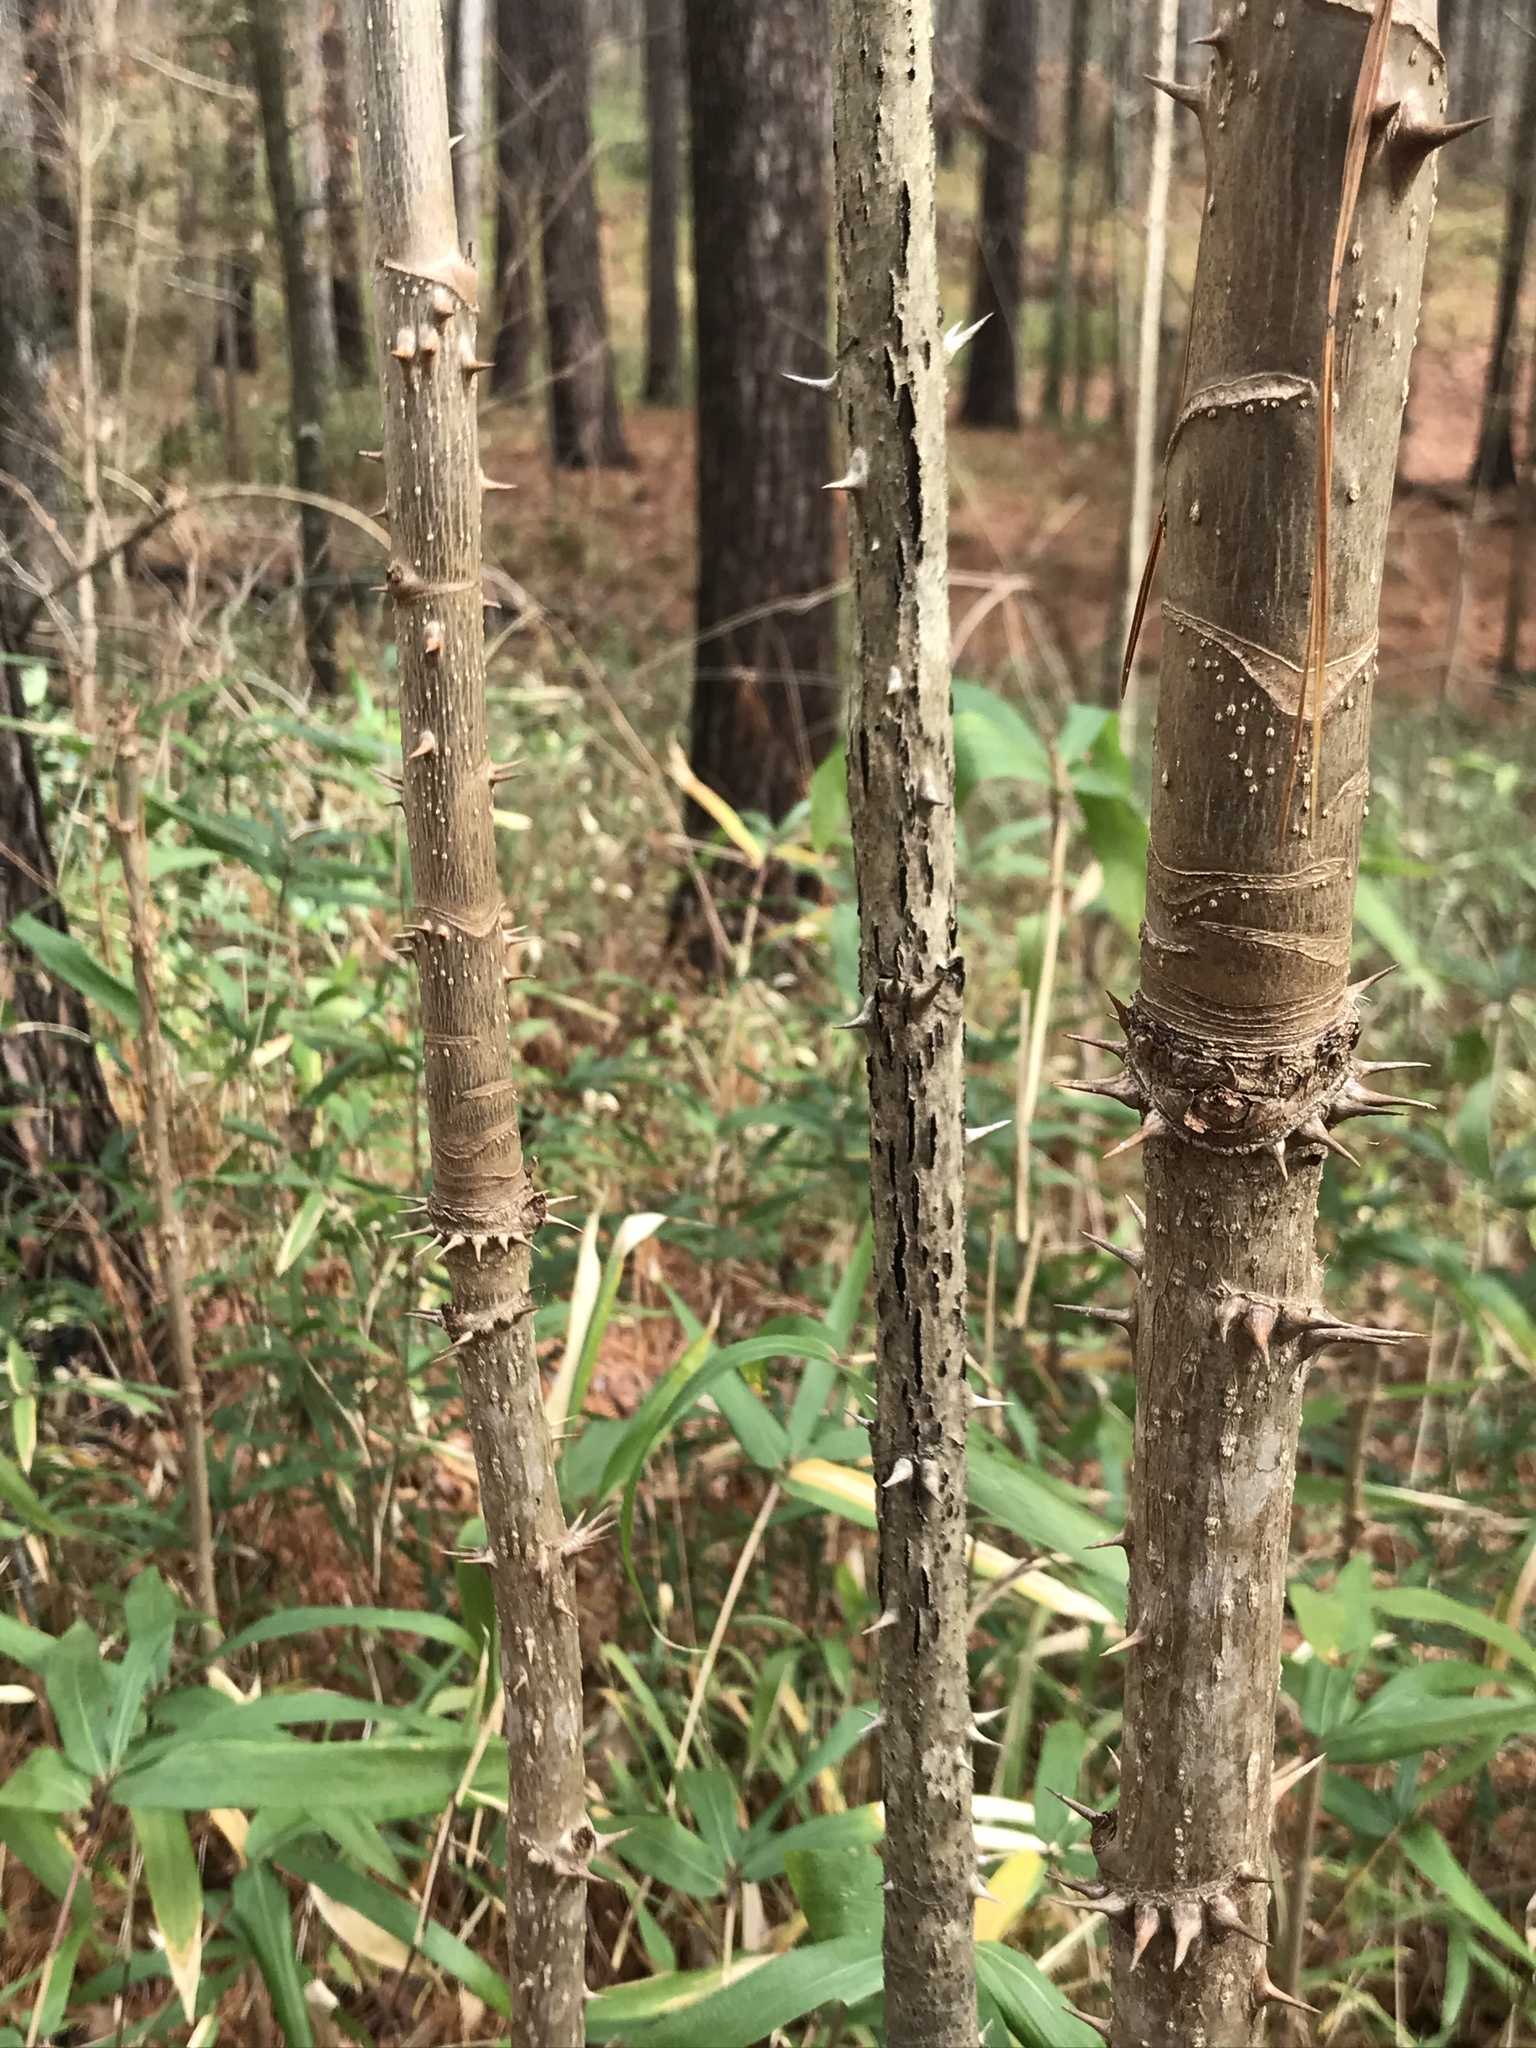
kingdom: Plantae
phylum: Tracheophyta
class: Magnoliopsida
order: Apiales
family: Araliaceae
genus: Aralia
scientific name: Aralia spinosa
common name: Hercules'-club
